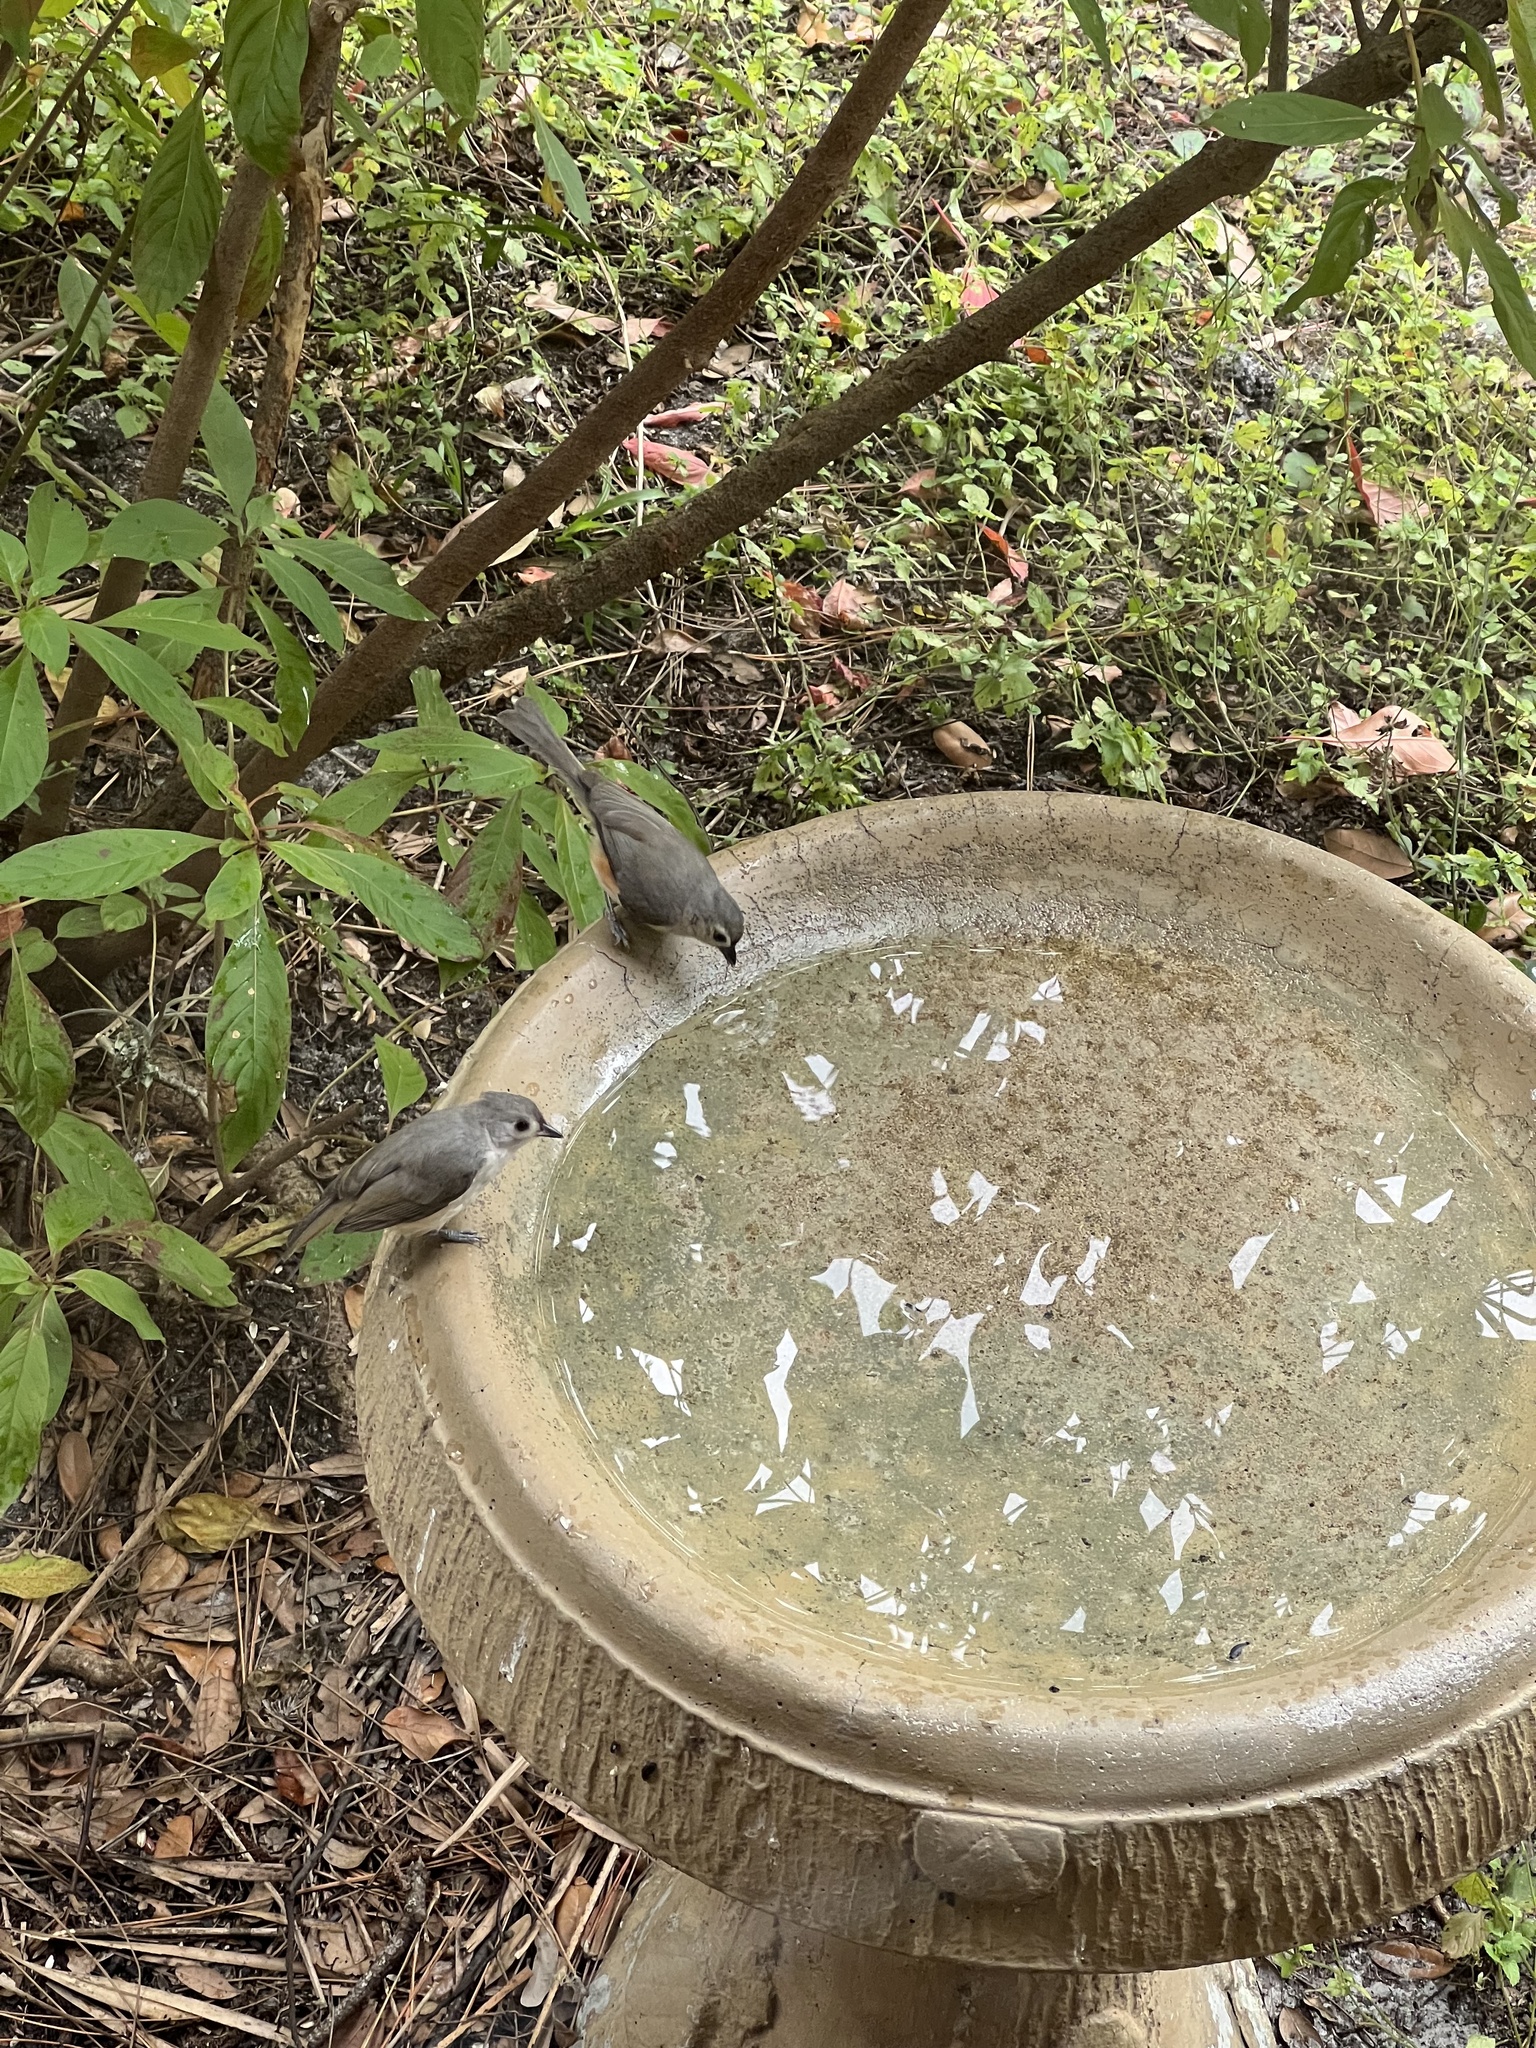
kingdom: Animalia
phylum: Chordata
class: Aves
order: Passeriformes
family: Paridae
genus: Baeolophus
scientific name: Baeolophus bicolor
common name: Tufted titmouse
